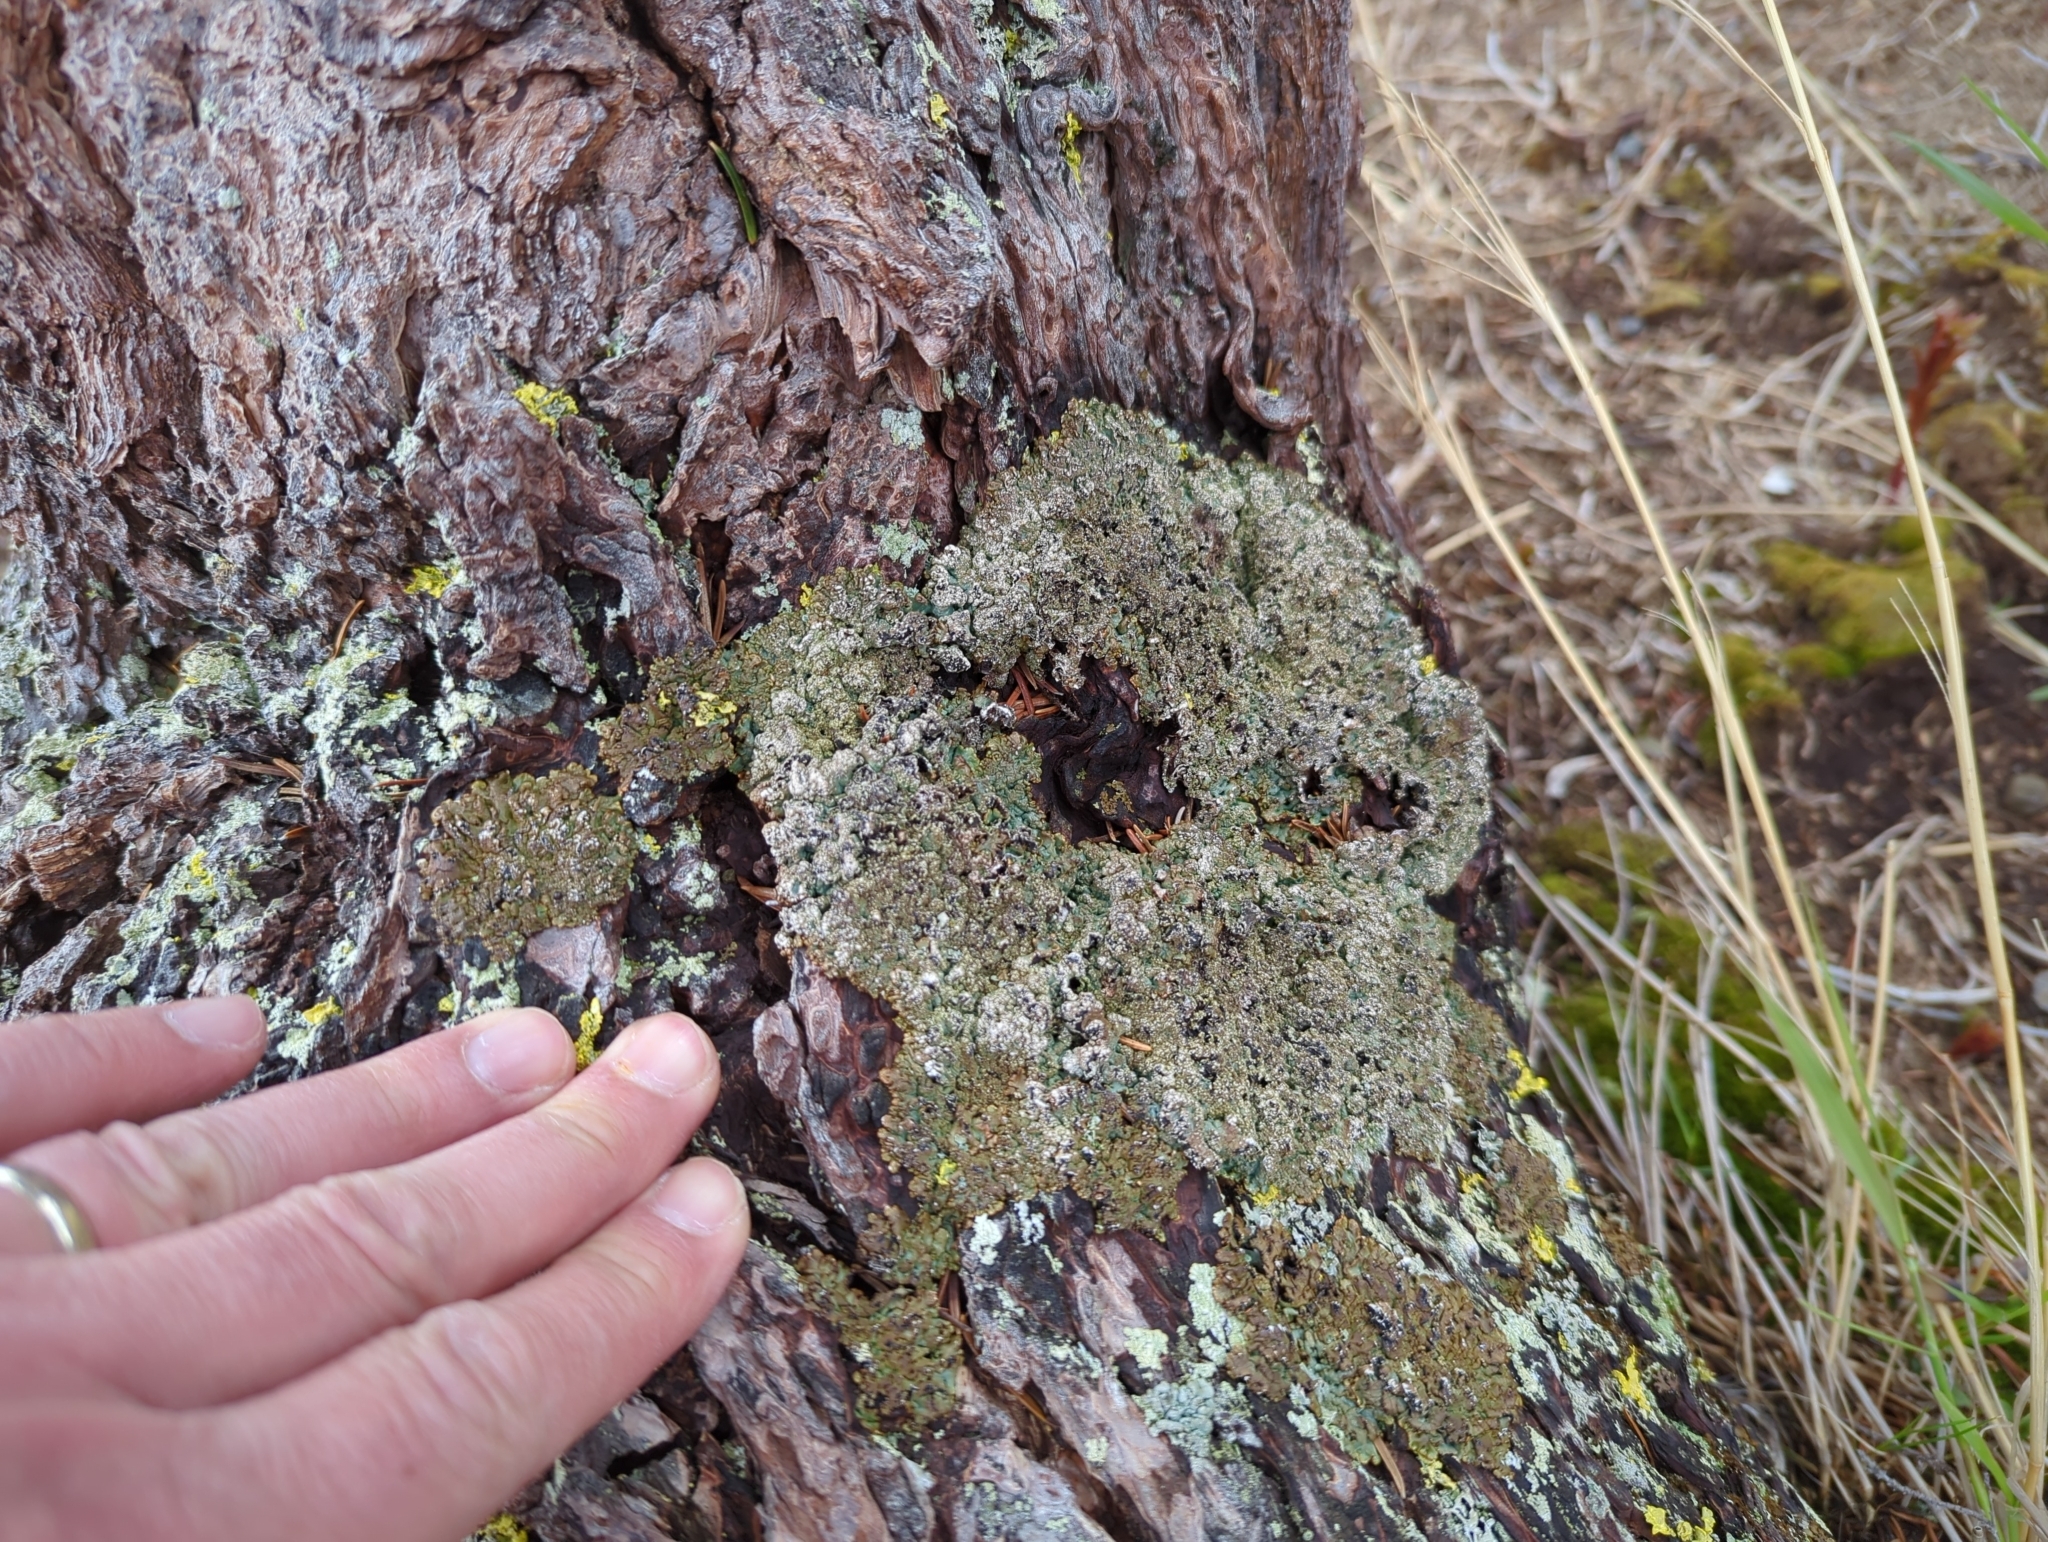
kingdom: Fungi
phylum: Ascomycota
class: Lecanoromycetes
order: Lecanorales
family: Parmeliaceae
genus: Hypogymnia
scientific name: Hypogymnia bitteri
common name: Bitter tube lichen
